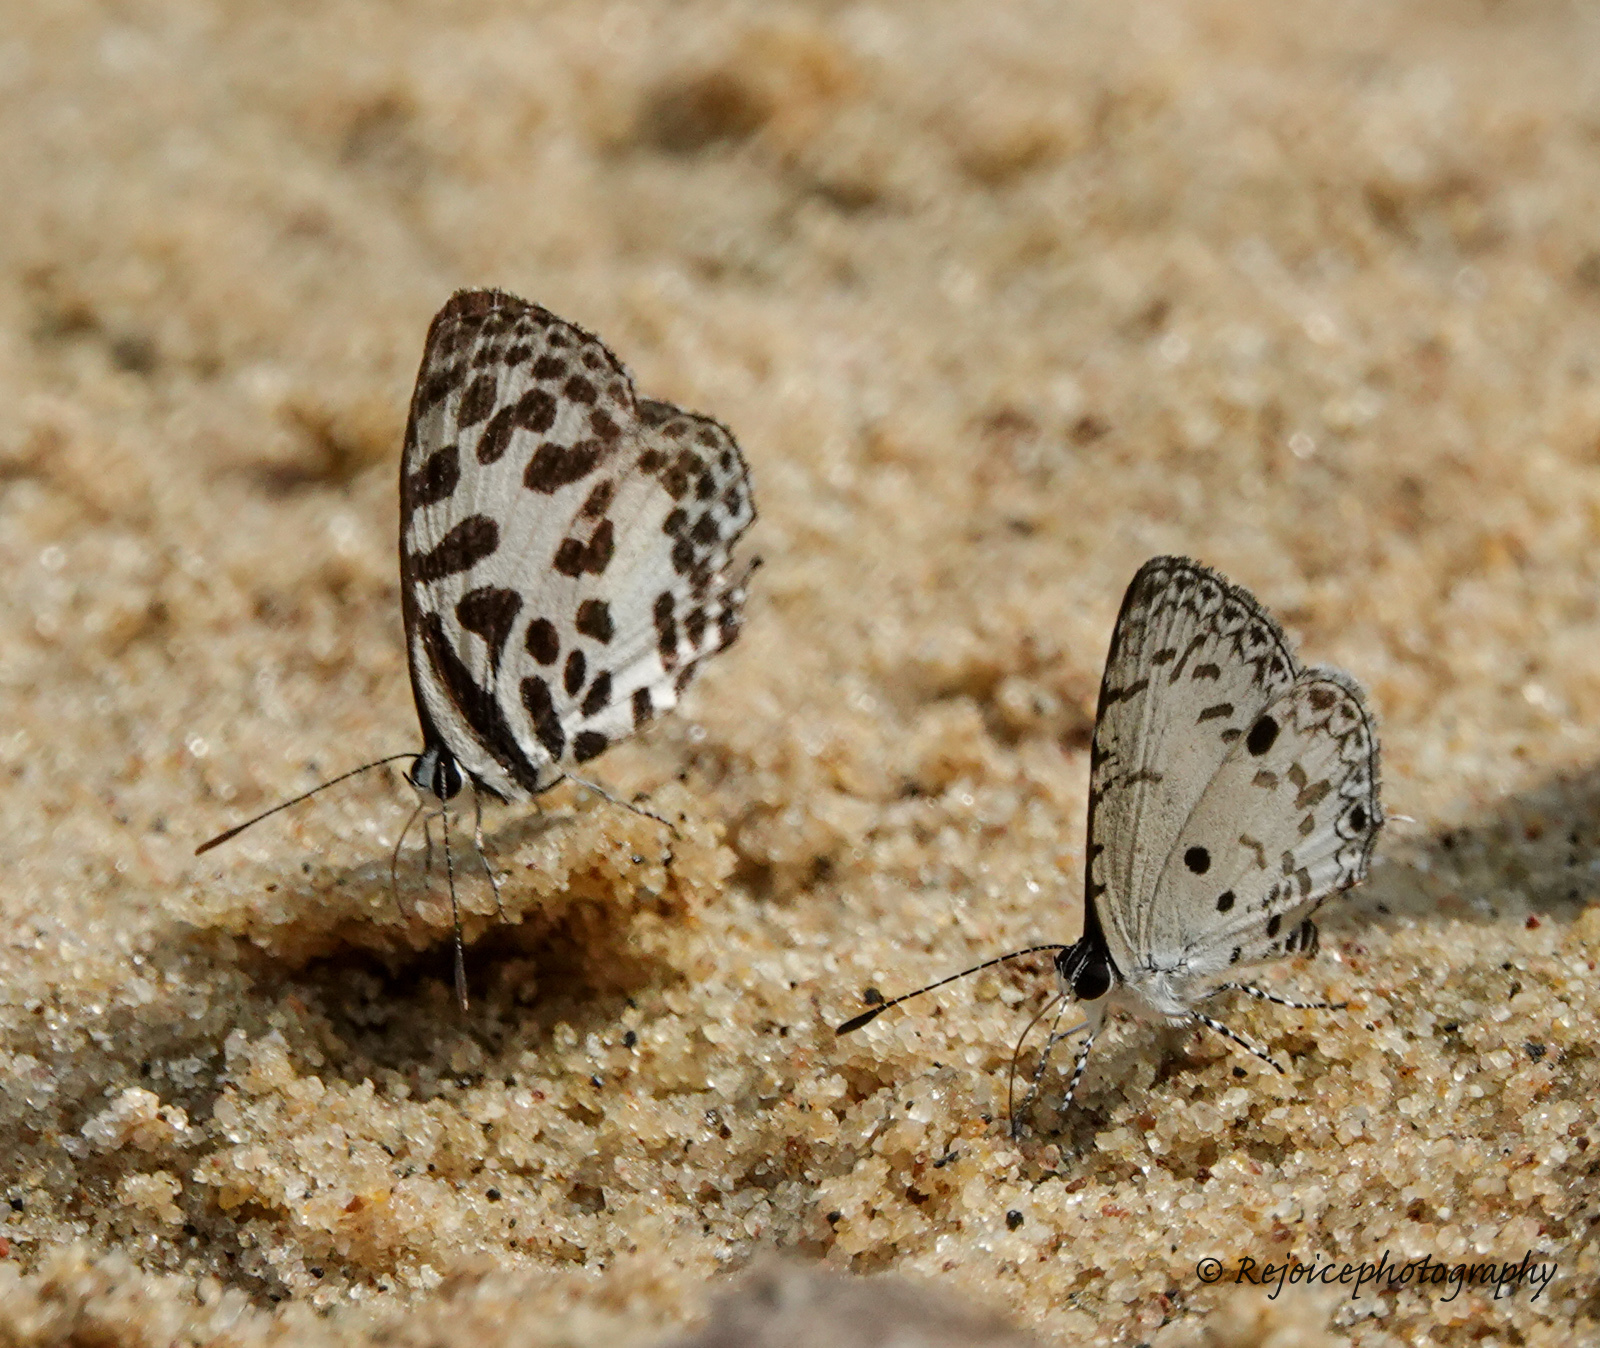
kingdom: Animalia
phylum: Arthropoda
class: Insecta
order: Lepidoptera
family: Lycaenidae
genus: Castalius
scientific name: Castalius rosimon
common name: Common pierrot
